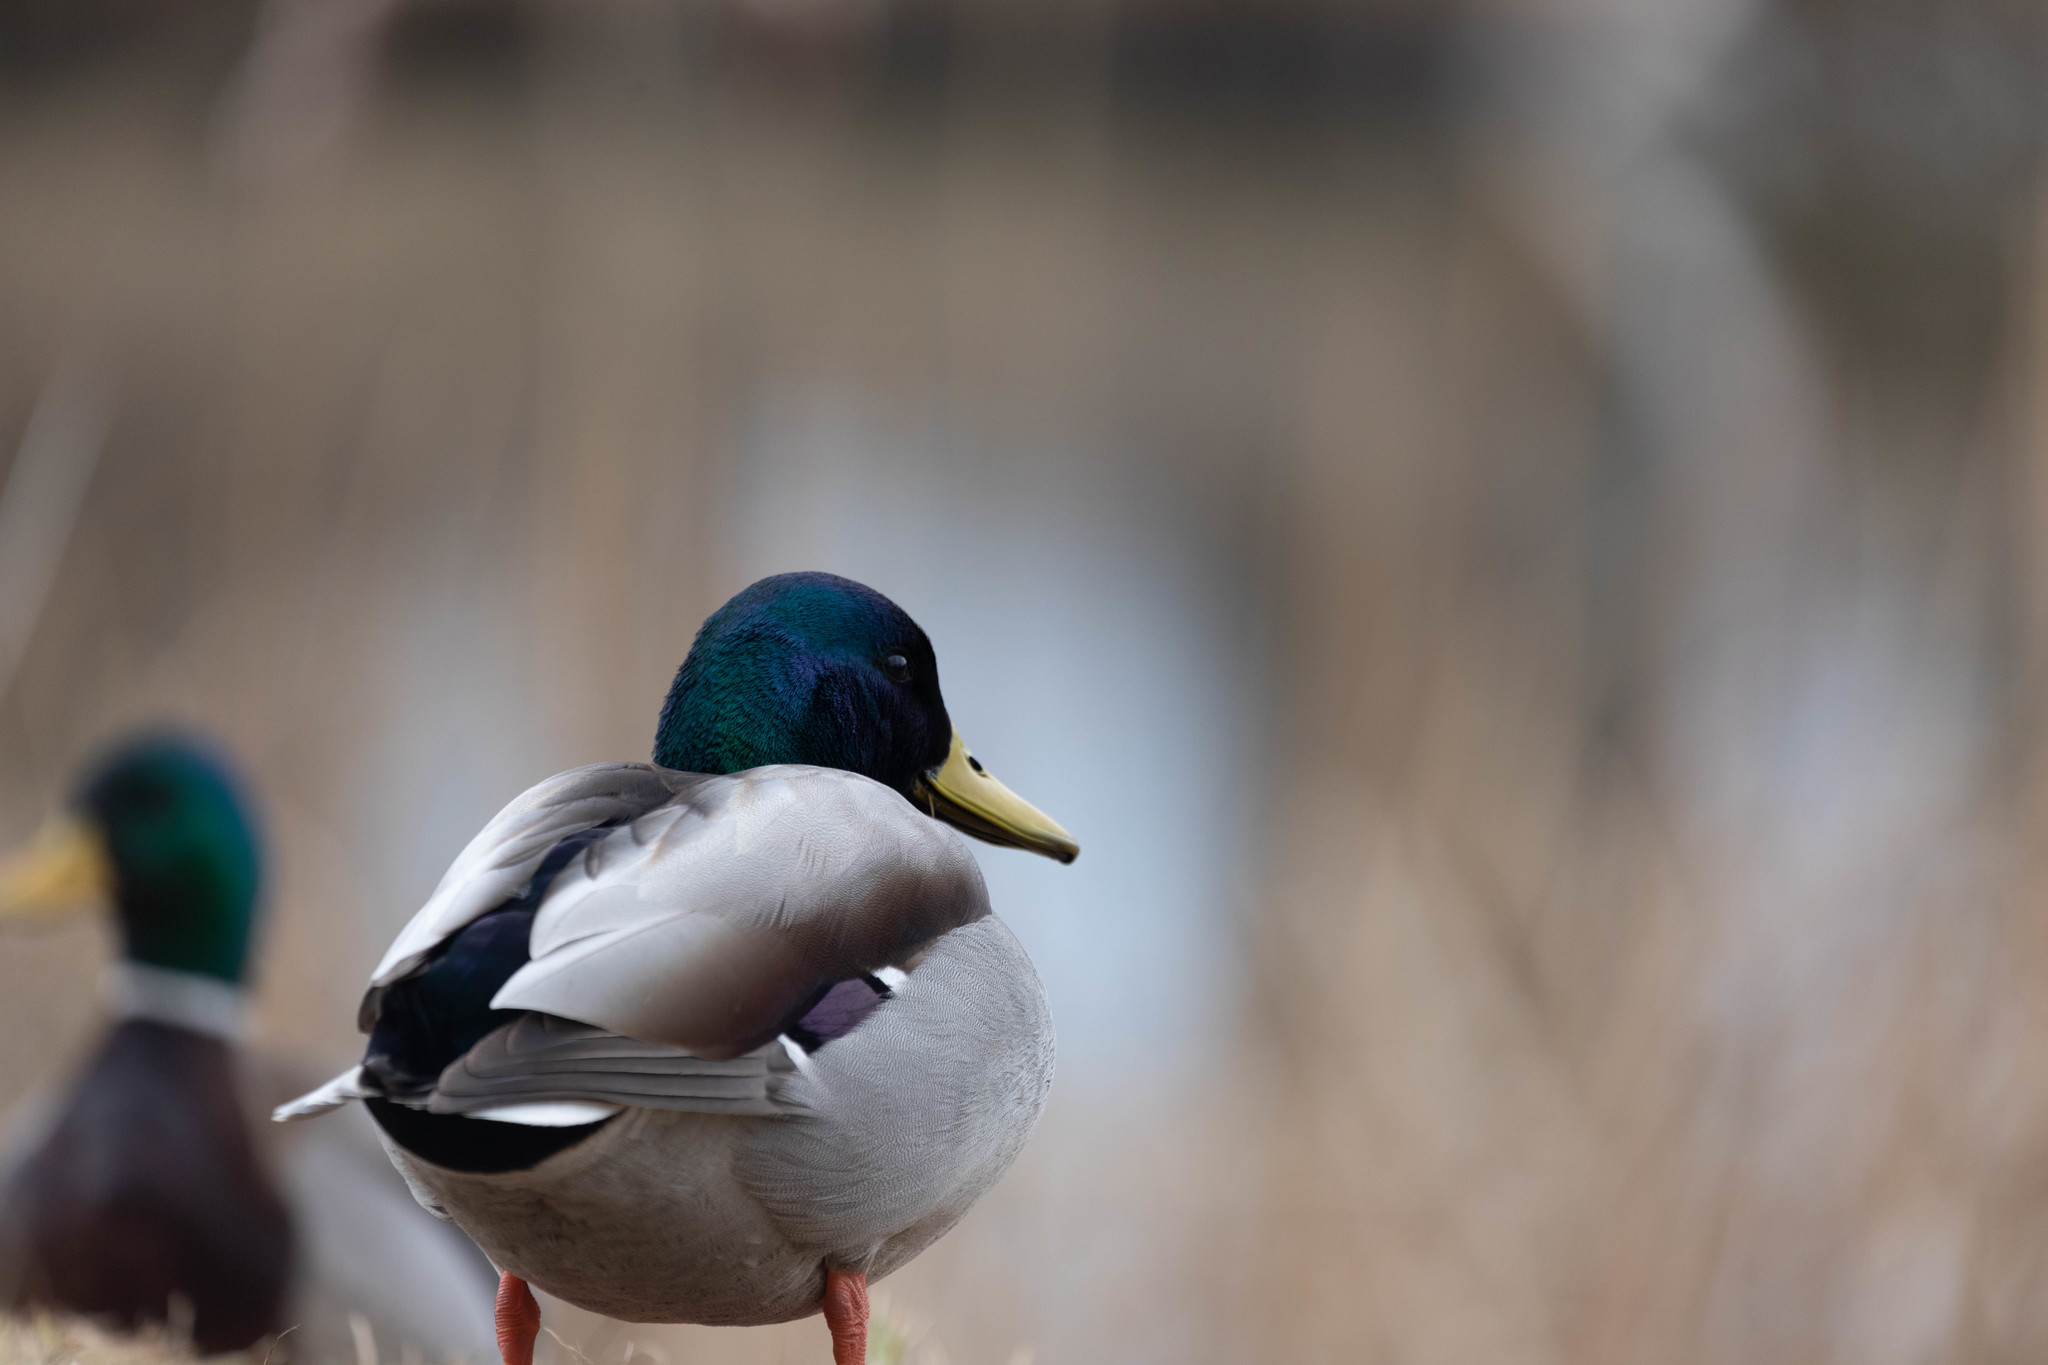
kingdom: Animalia
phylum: Chordata
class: Aves
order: Anseriformes
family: Anatidae
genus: Anas
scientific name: Anas platyrhynchos
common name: Mallard
